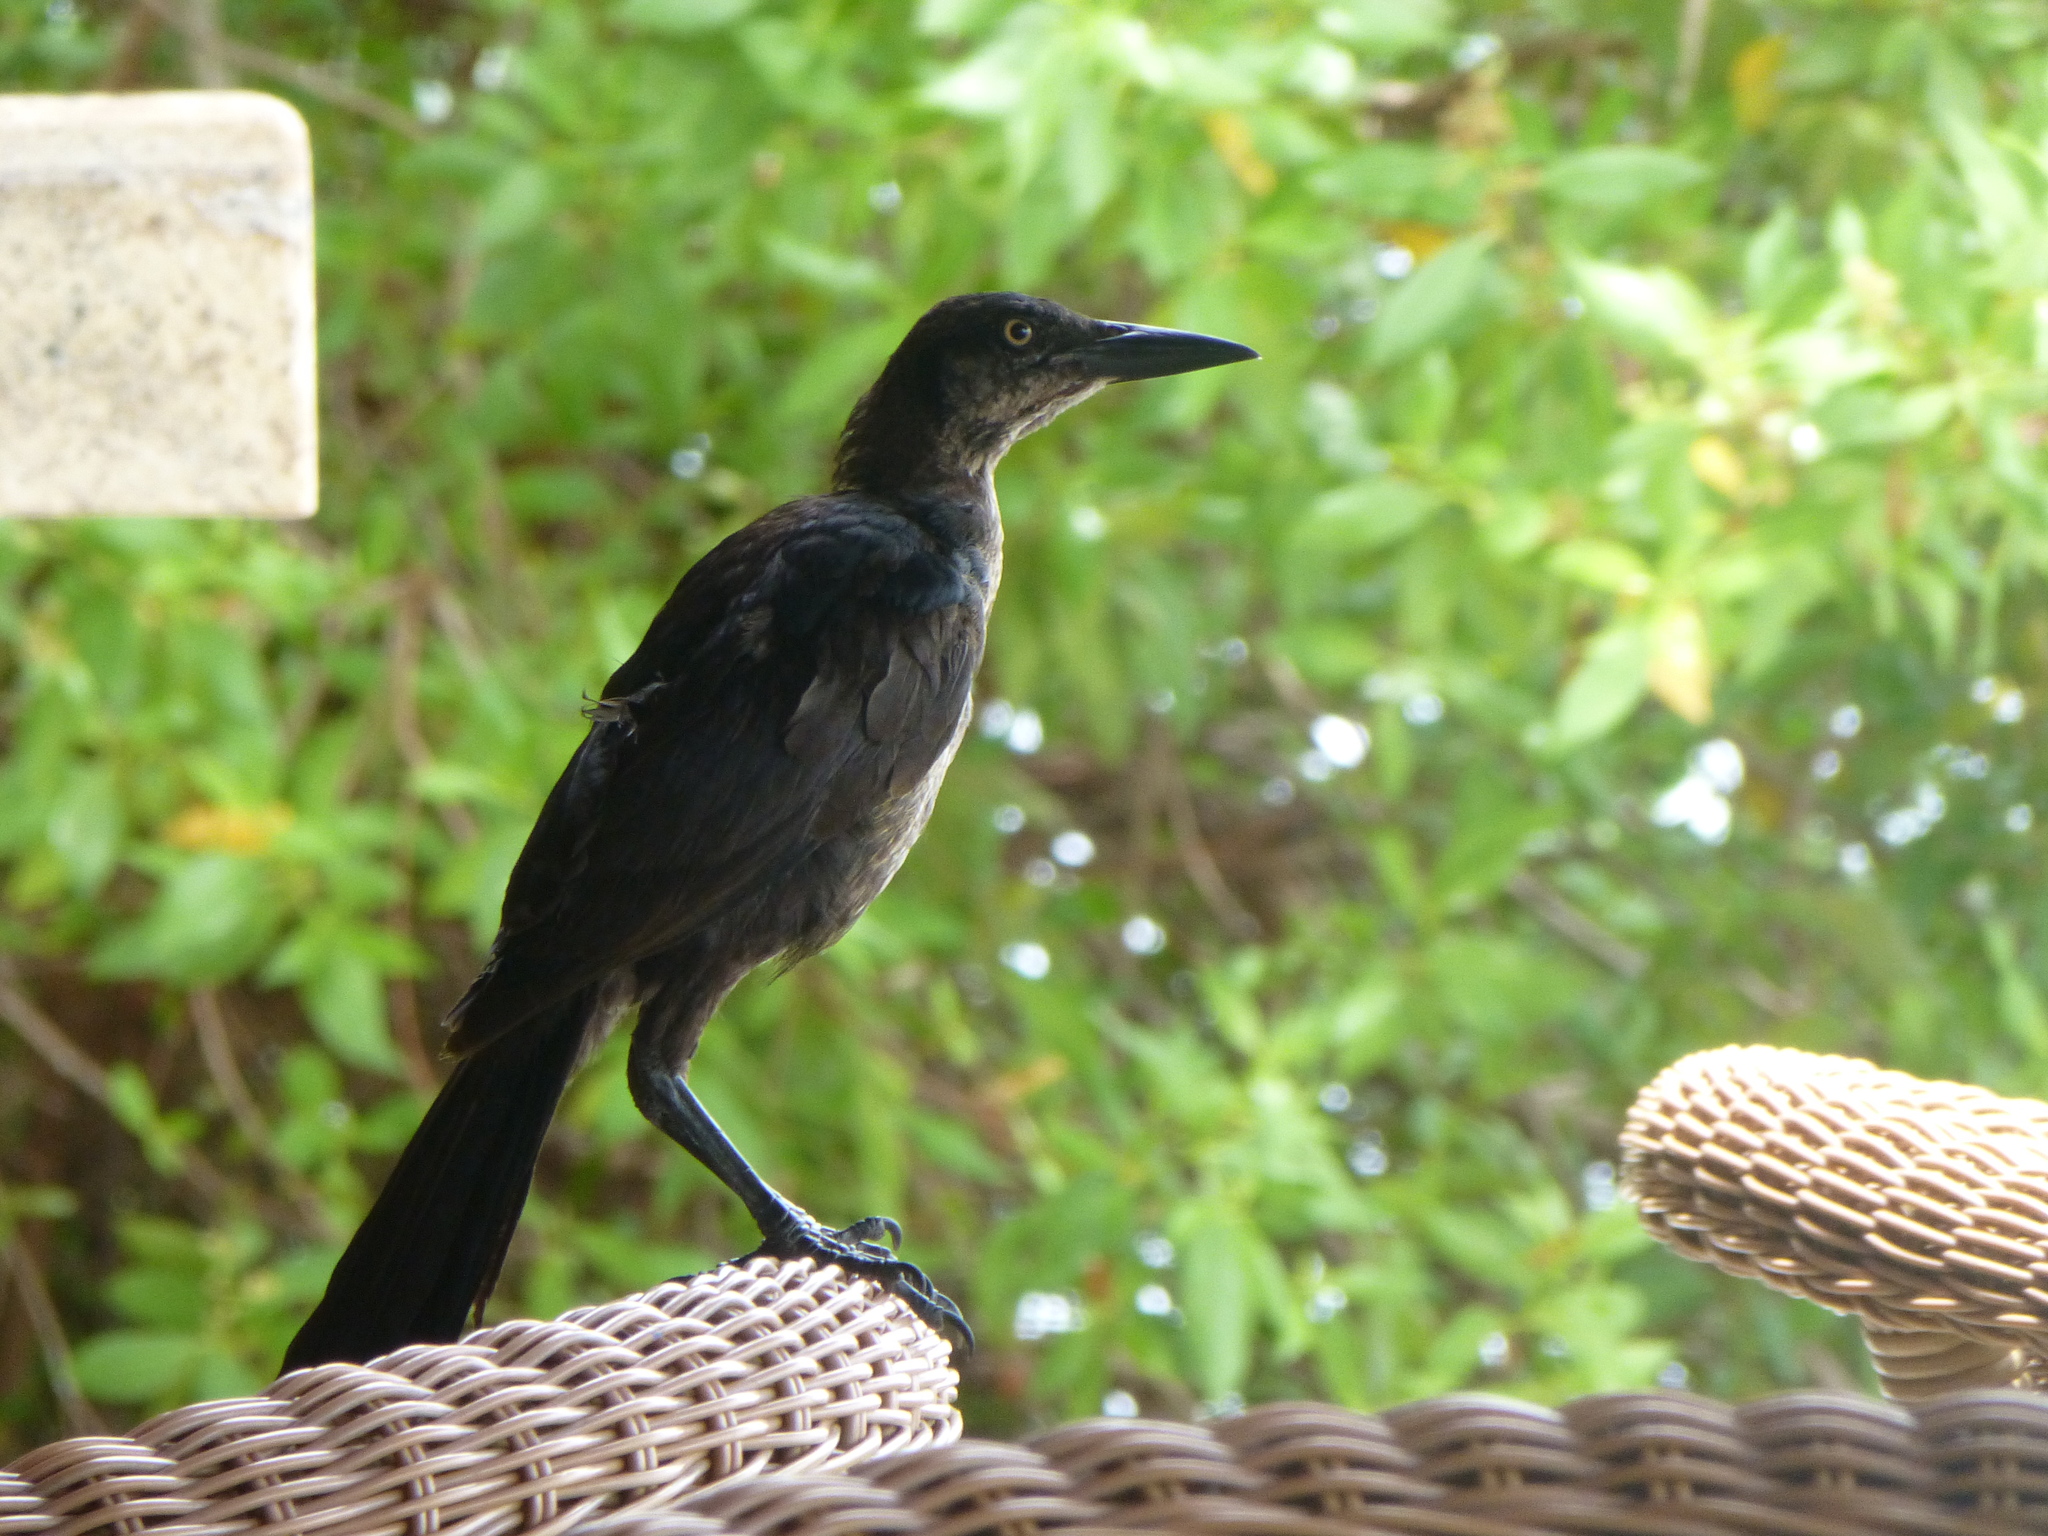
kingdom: Animalia
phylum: Chordata
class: Aves
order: Passeriformes
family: Icteridae
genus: Quiscalus
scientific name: Quiscalus mexicanus
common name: Great-tailed grackle
